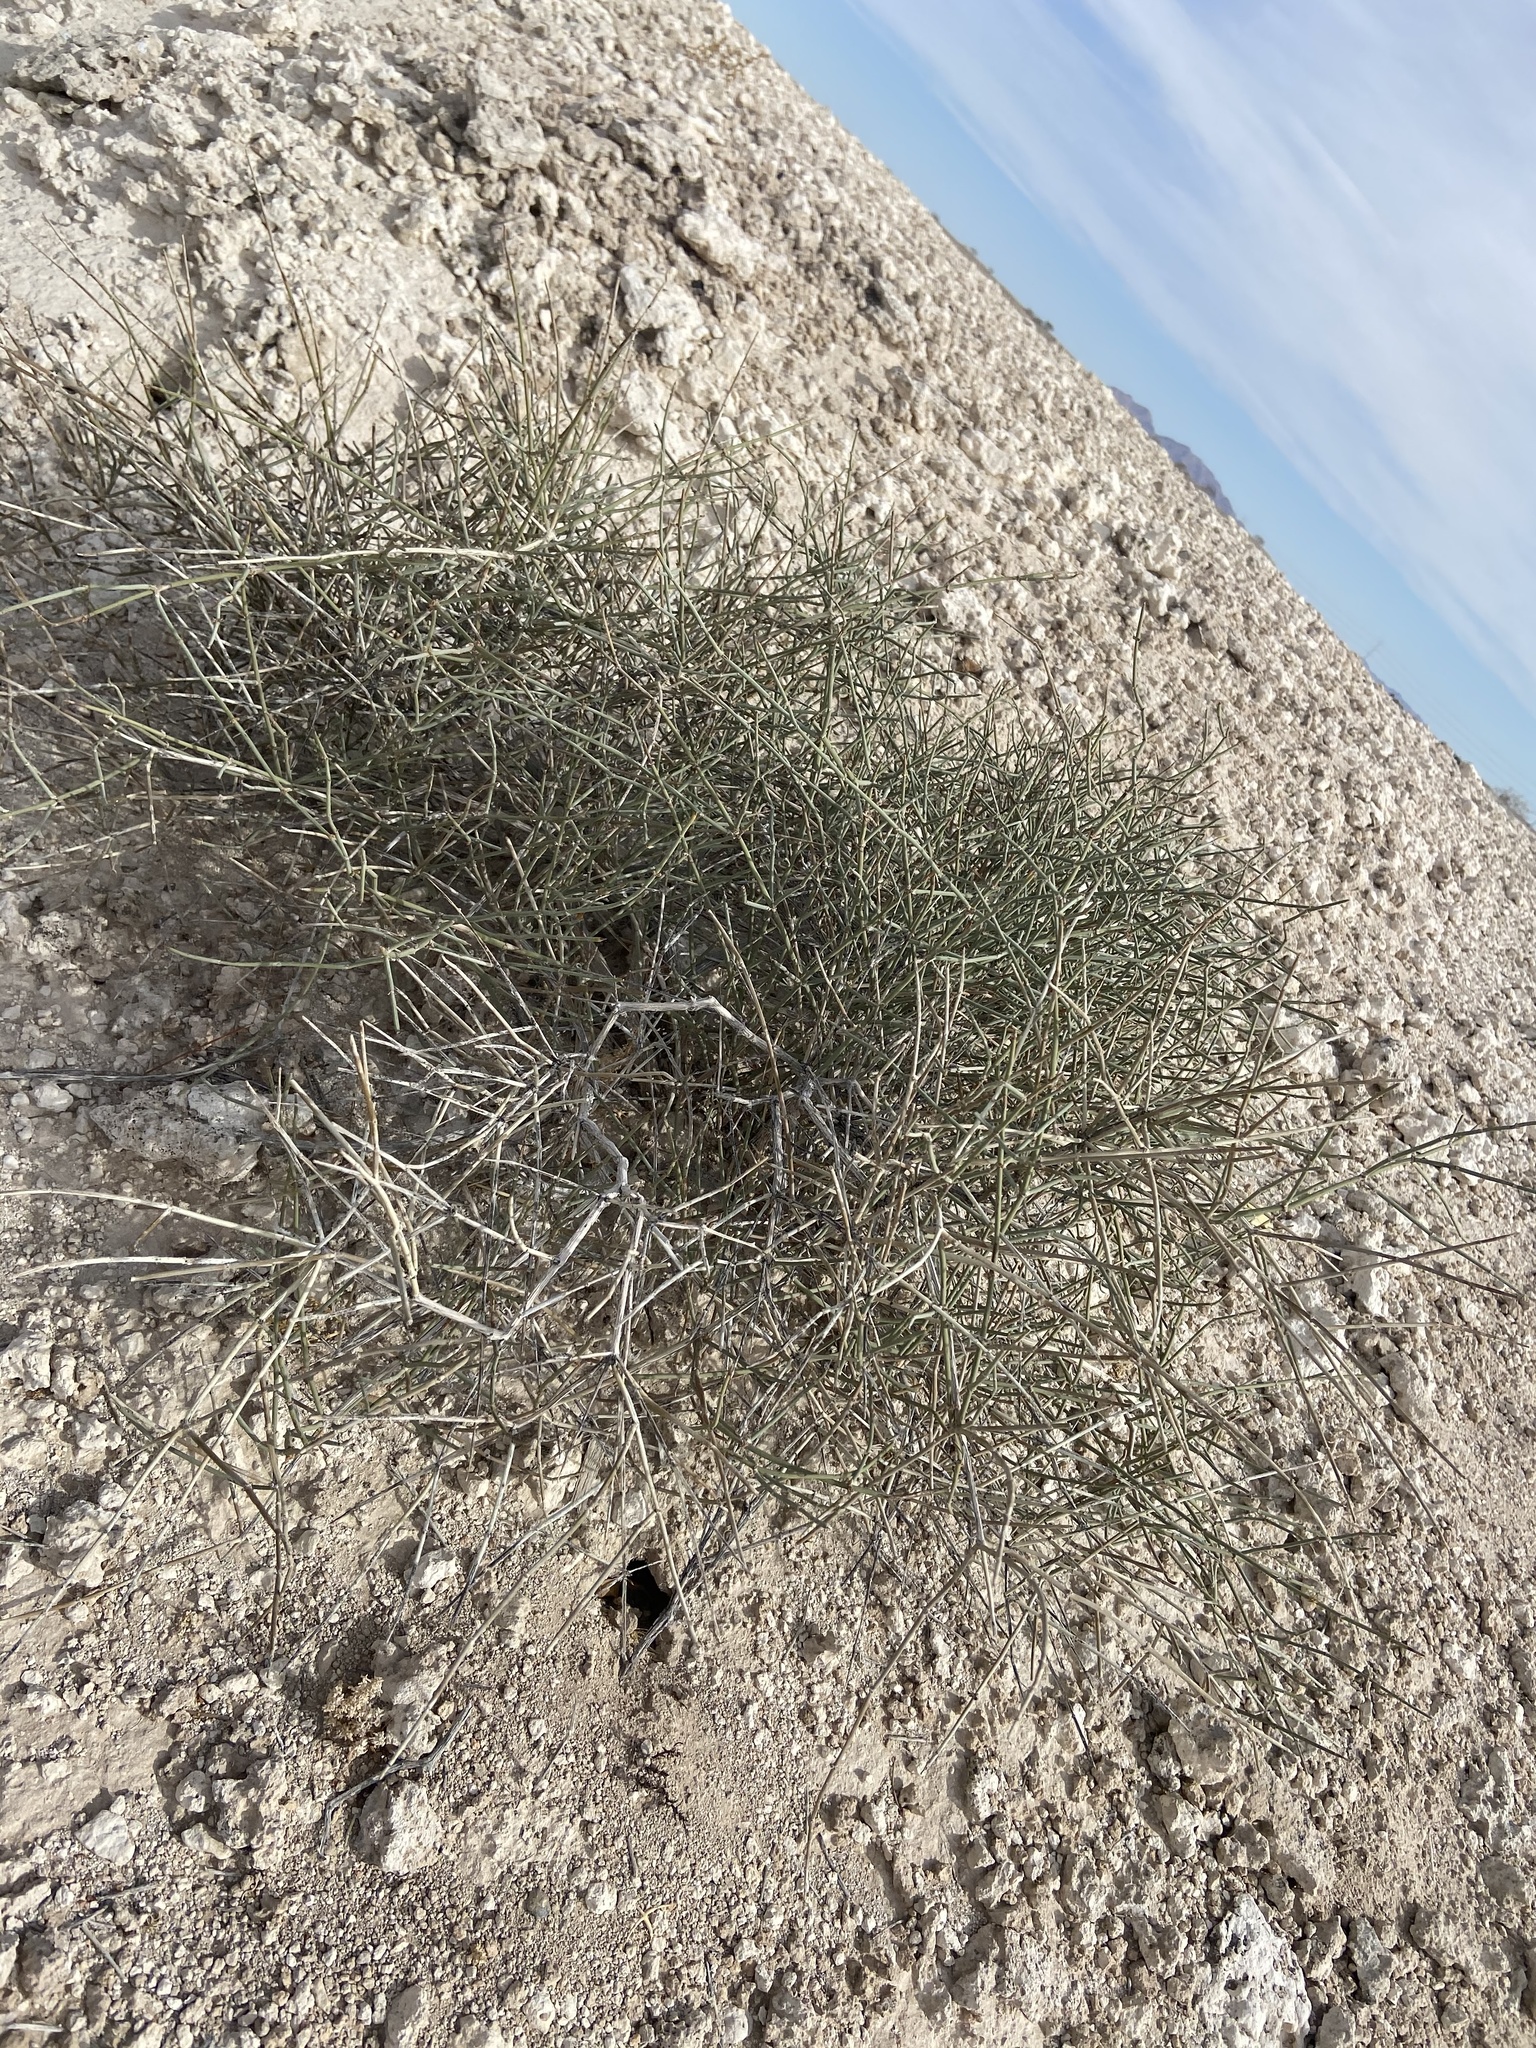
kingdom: Plantae
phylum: Tracheophyta
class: Gnetopsida
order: Ephedrales
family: Ephedraceae
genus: Ephedra
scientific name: Ephedra nevadensis
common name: Gray ephedra
